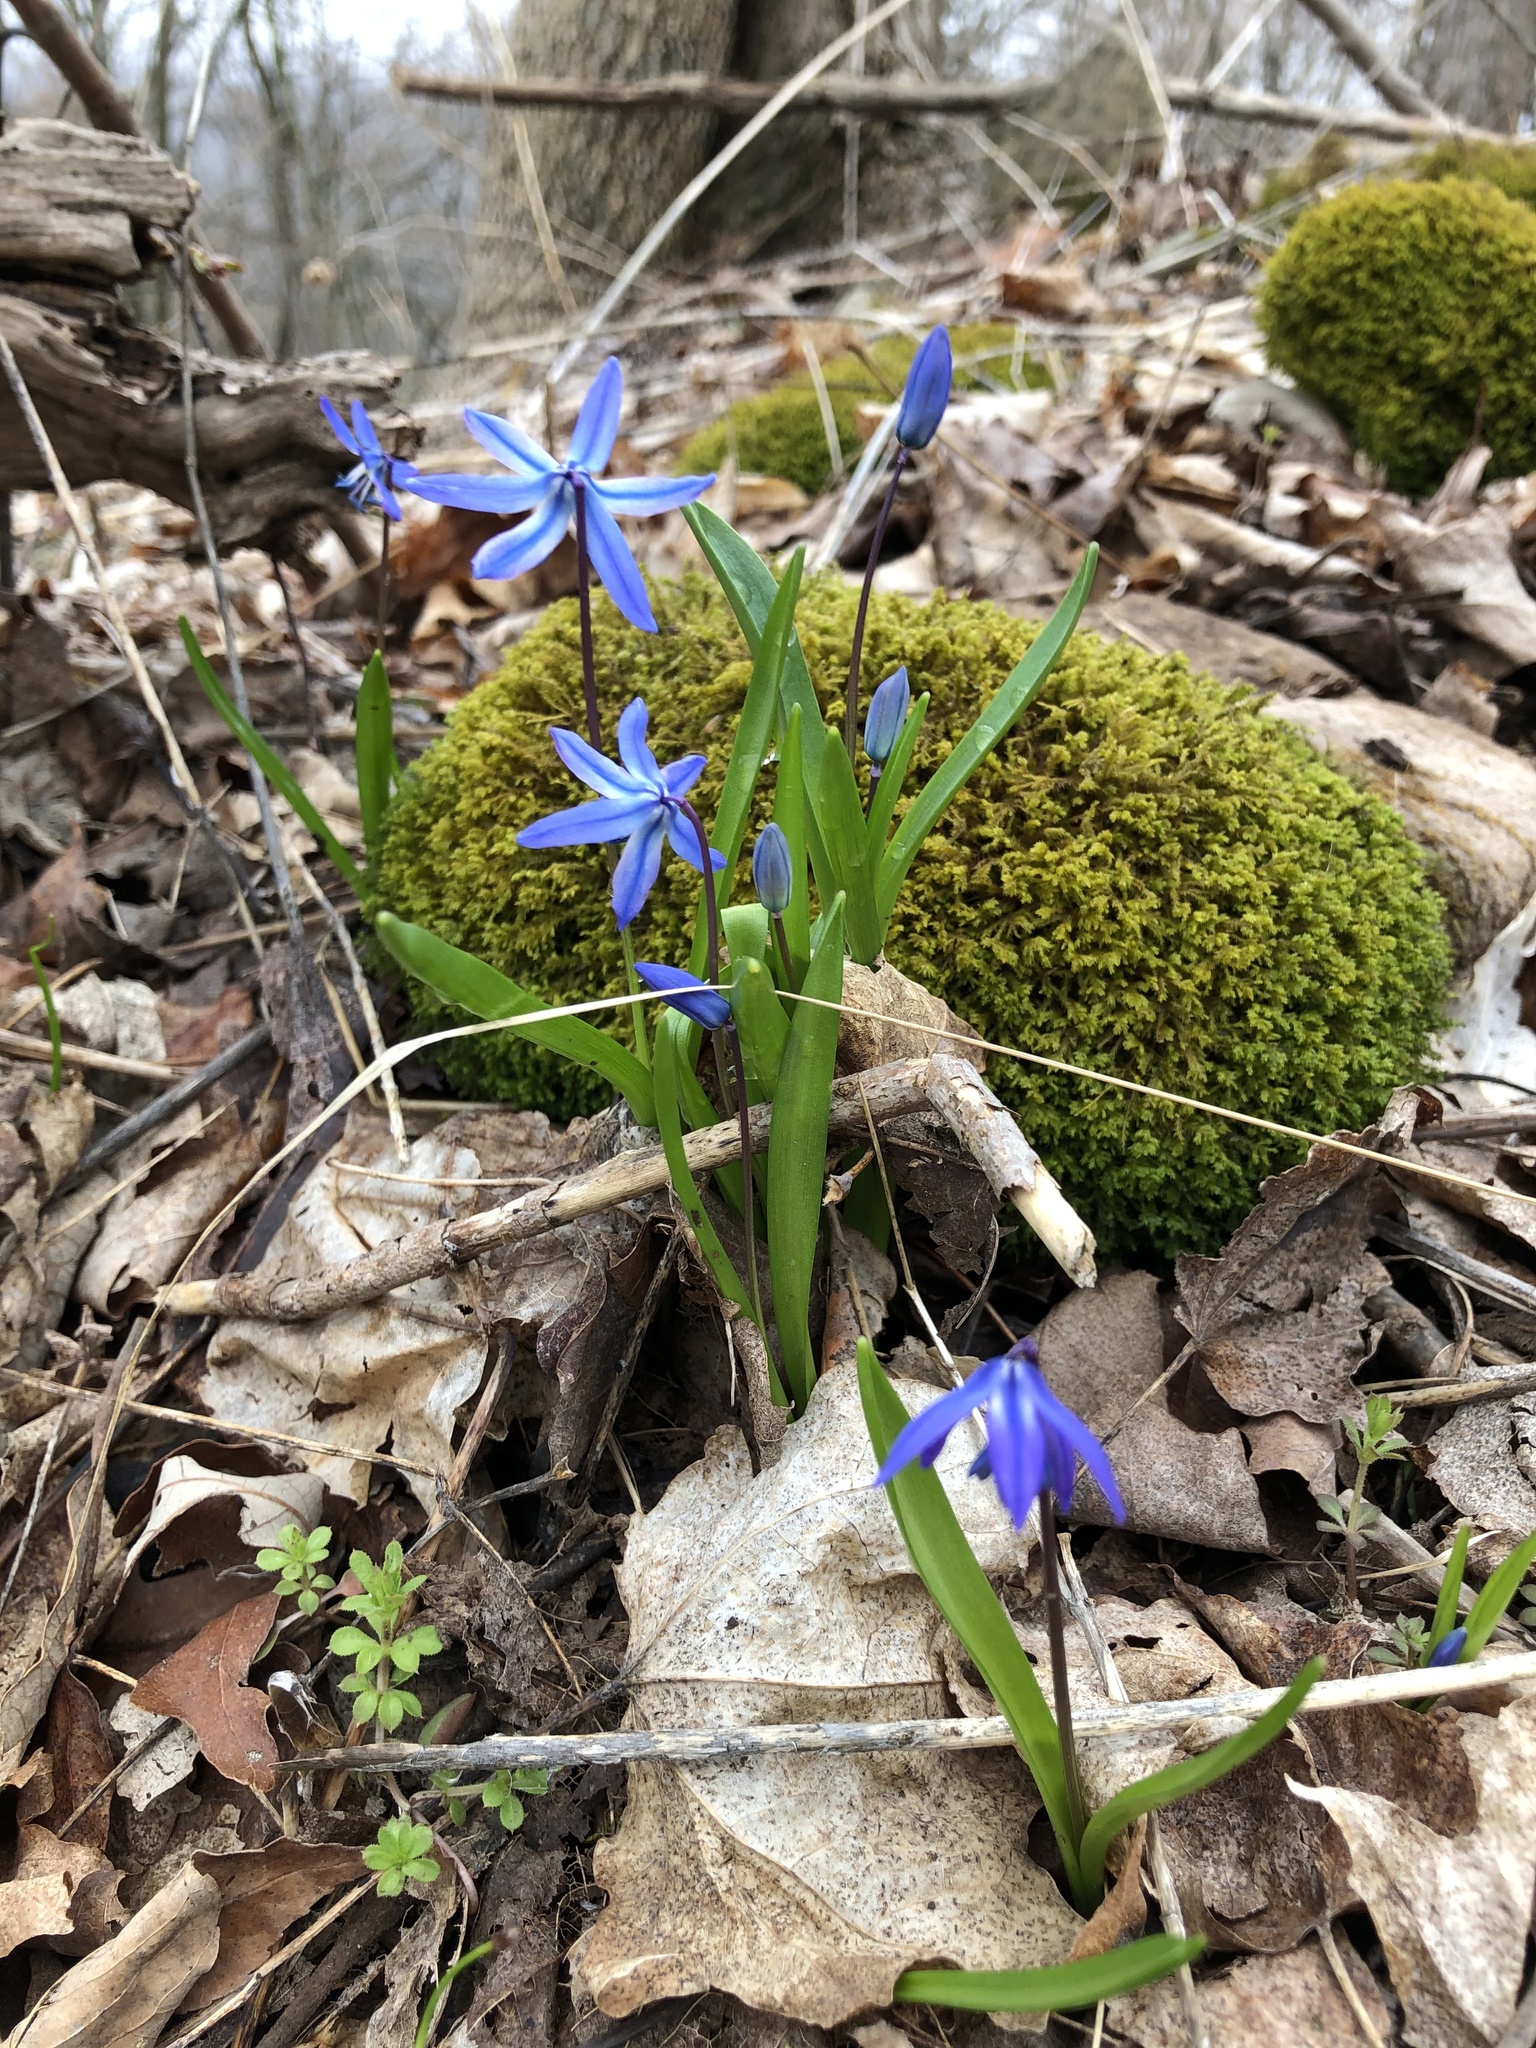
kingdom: Plantae
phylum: Tracheophyta
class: Liliopsida
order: Asparagales
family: Asparagaceae
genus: Scilla
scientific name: Scilla siberica
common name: Siberian squill
